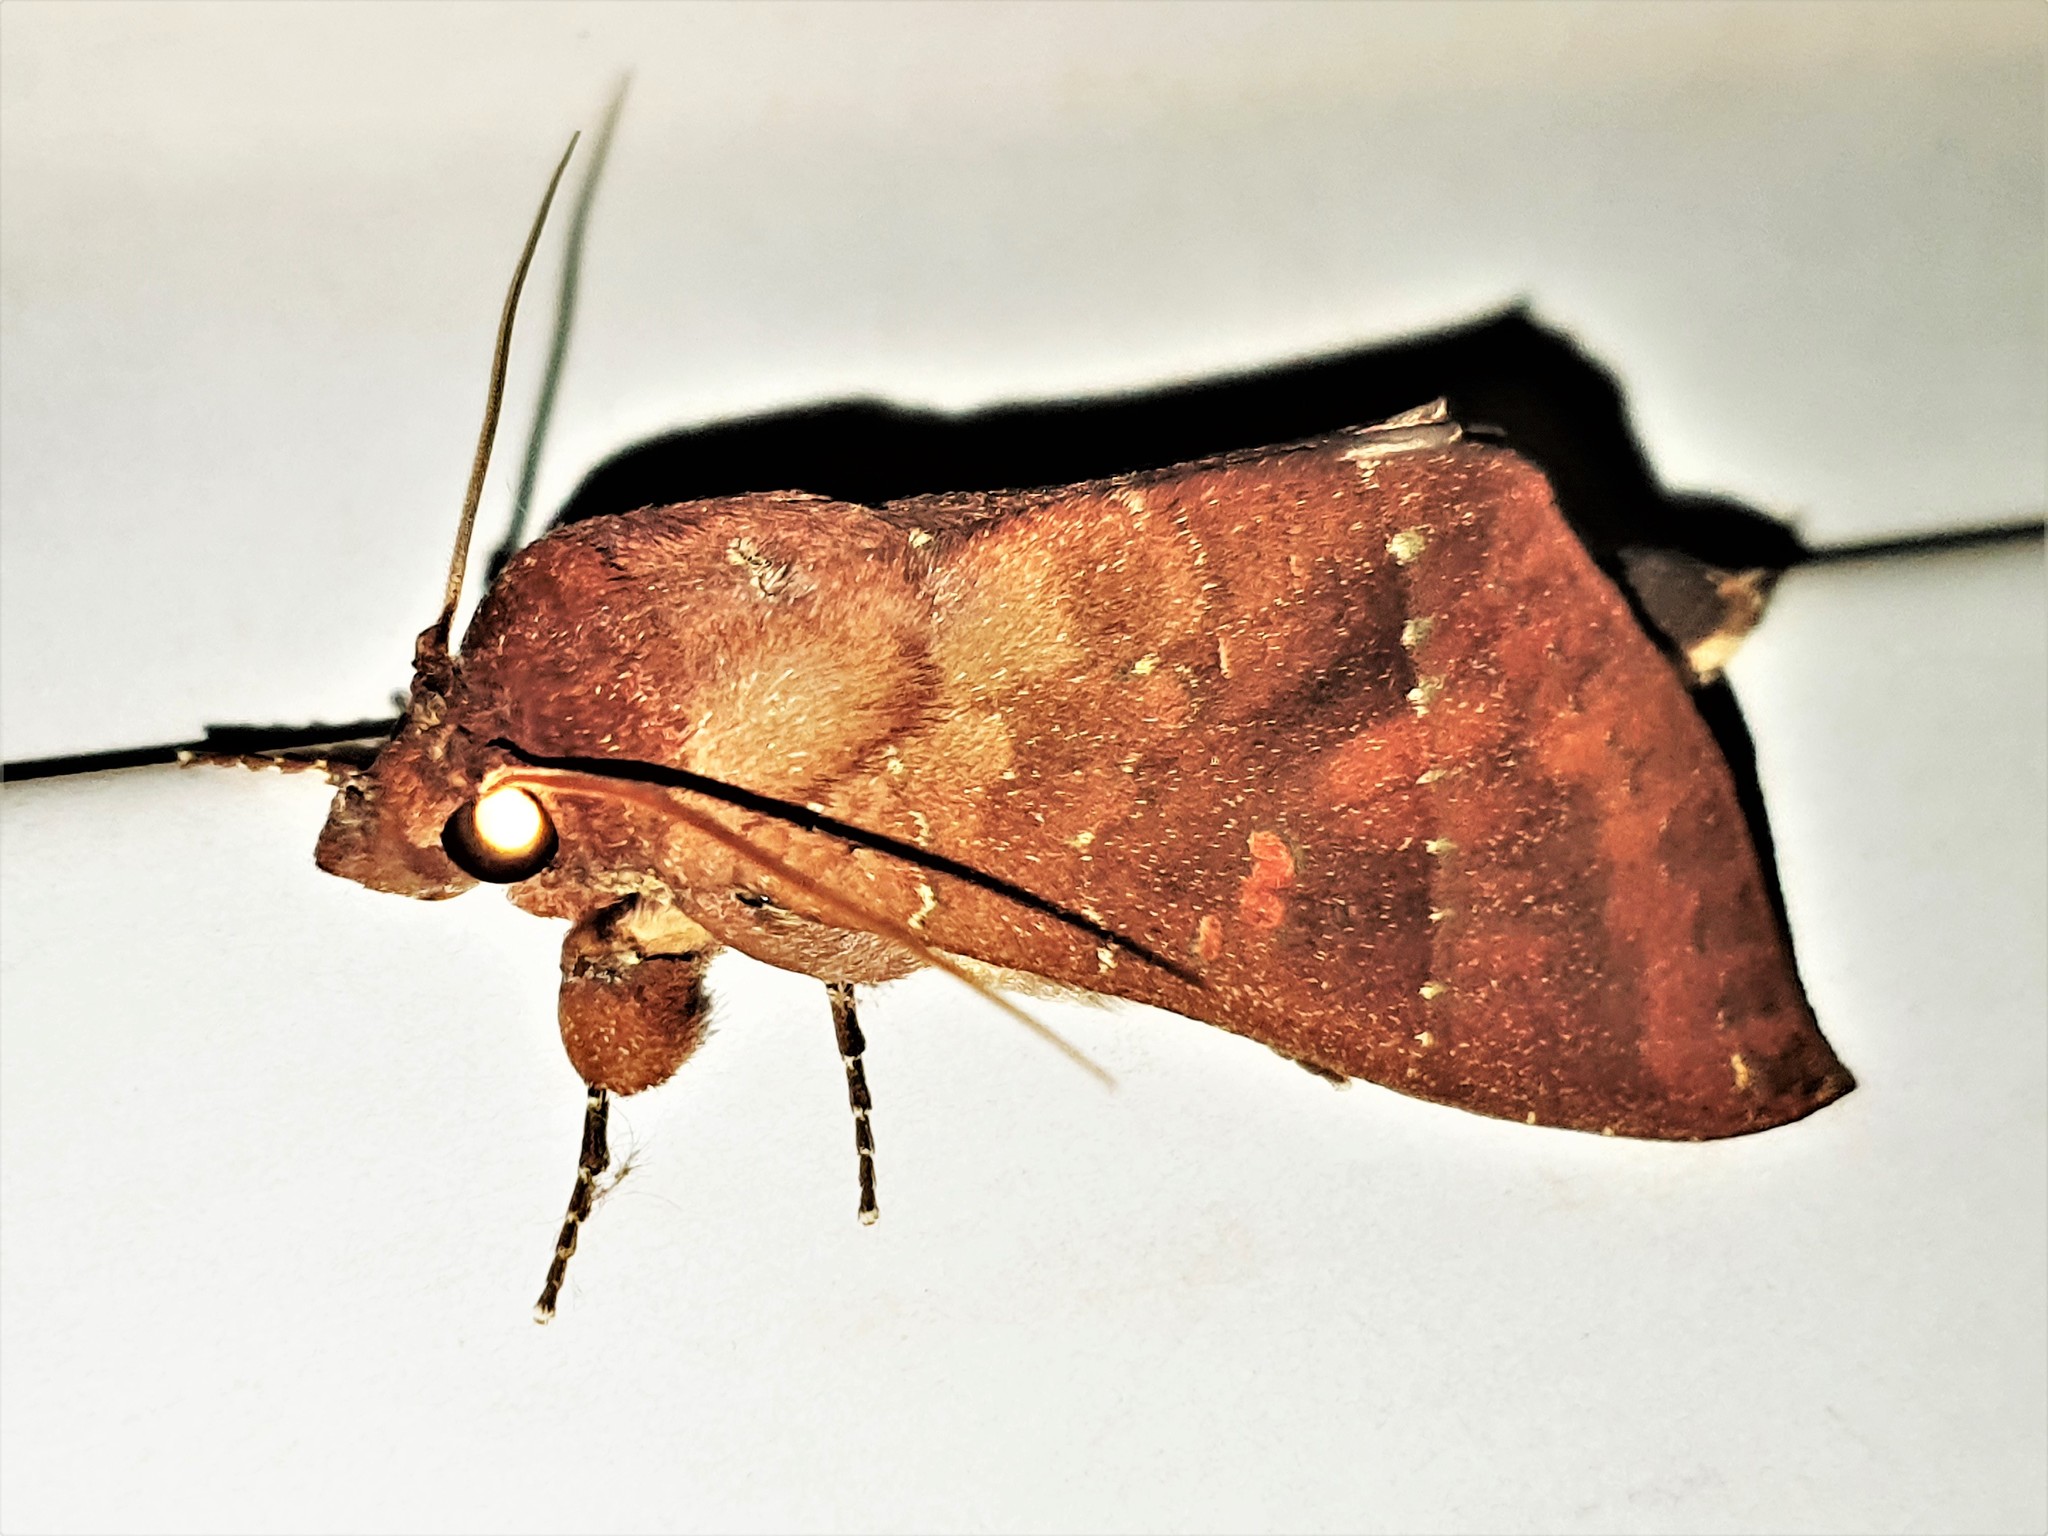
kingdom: Animalia
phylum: Arthropoda
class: Insecta
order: Lepidoptera
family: Notodontidae
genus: Hapigia
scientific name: Hapigia simplex
